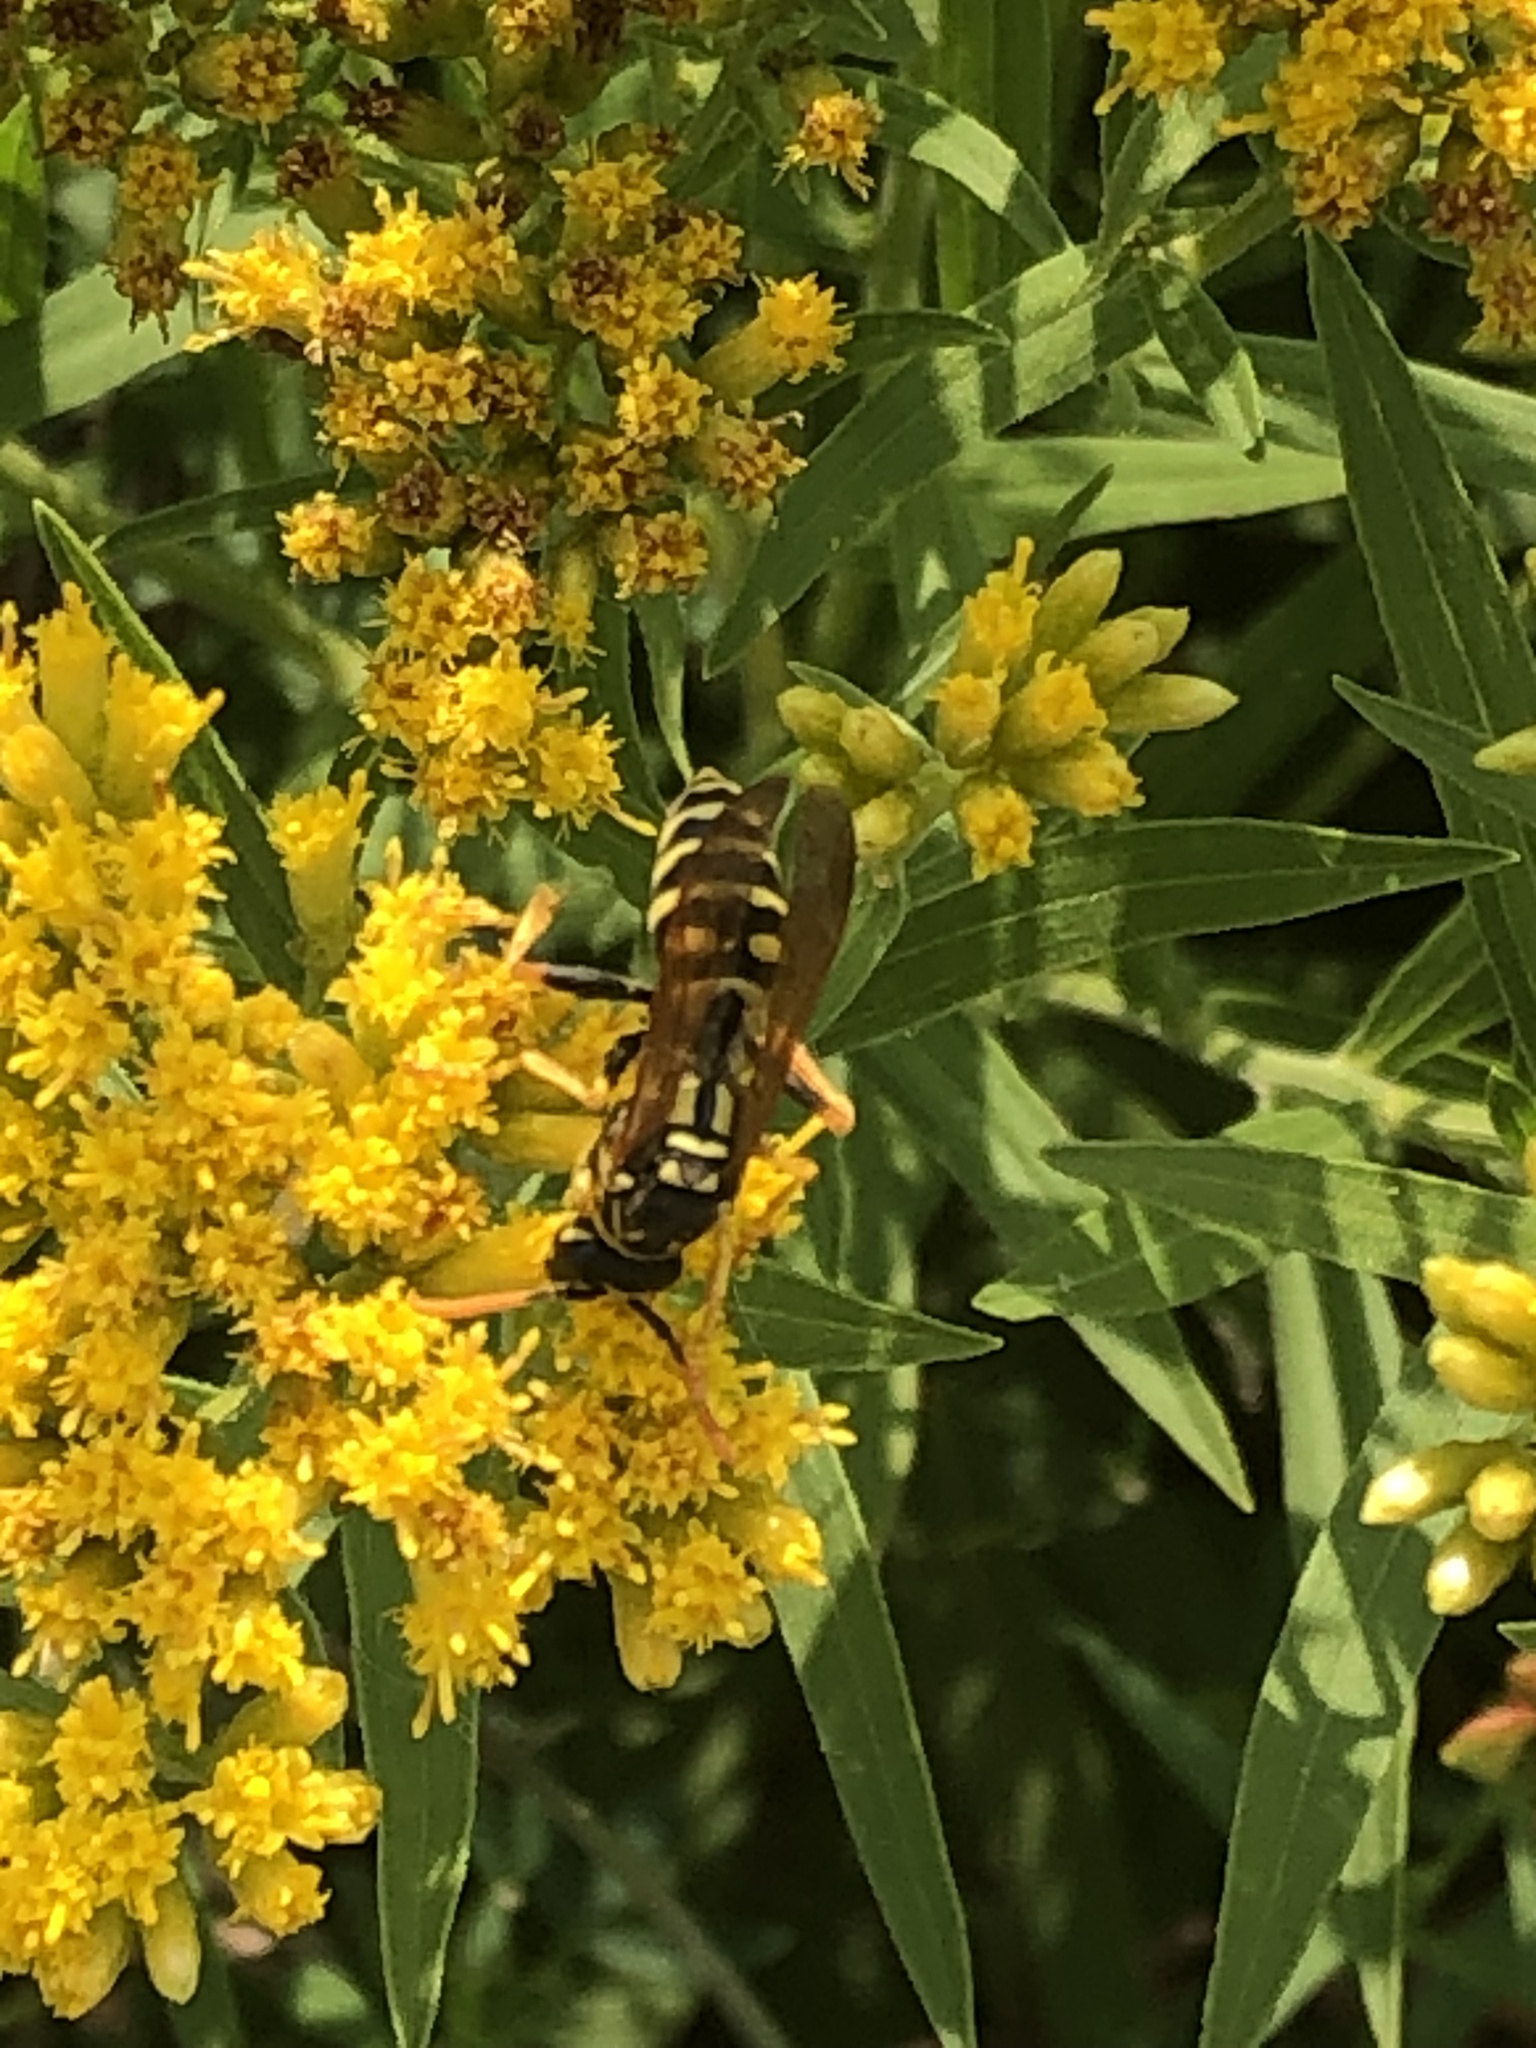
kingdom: Animalia
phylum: Arthropoda
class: Insecta
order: Hymenoptera
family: Eumenidae
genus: Polistes
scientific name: Polistes dominula
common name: Paper wasp
